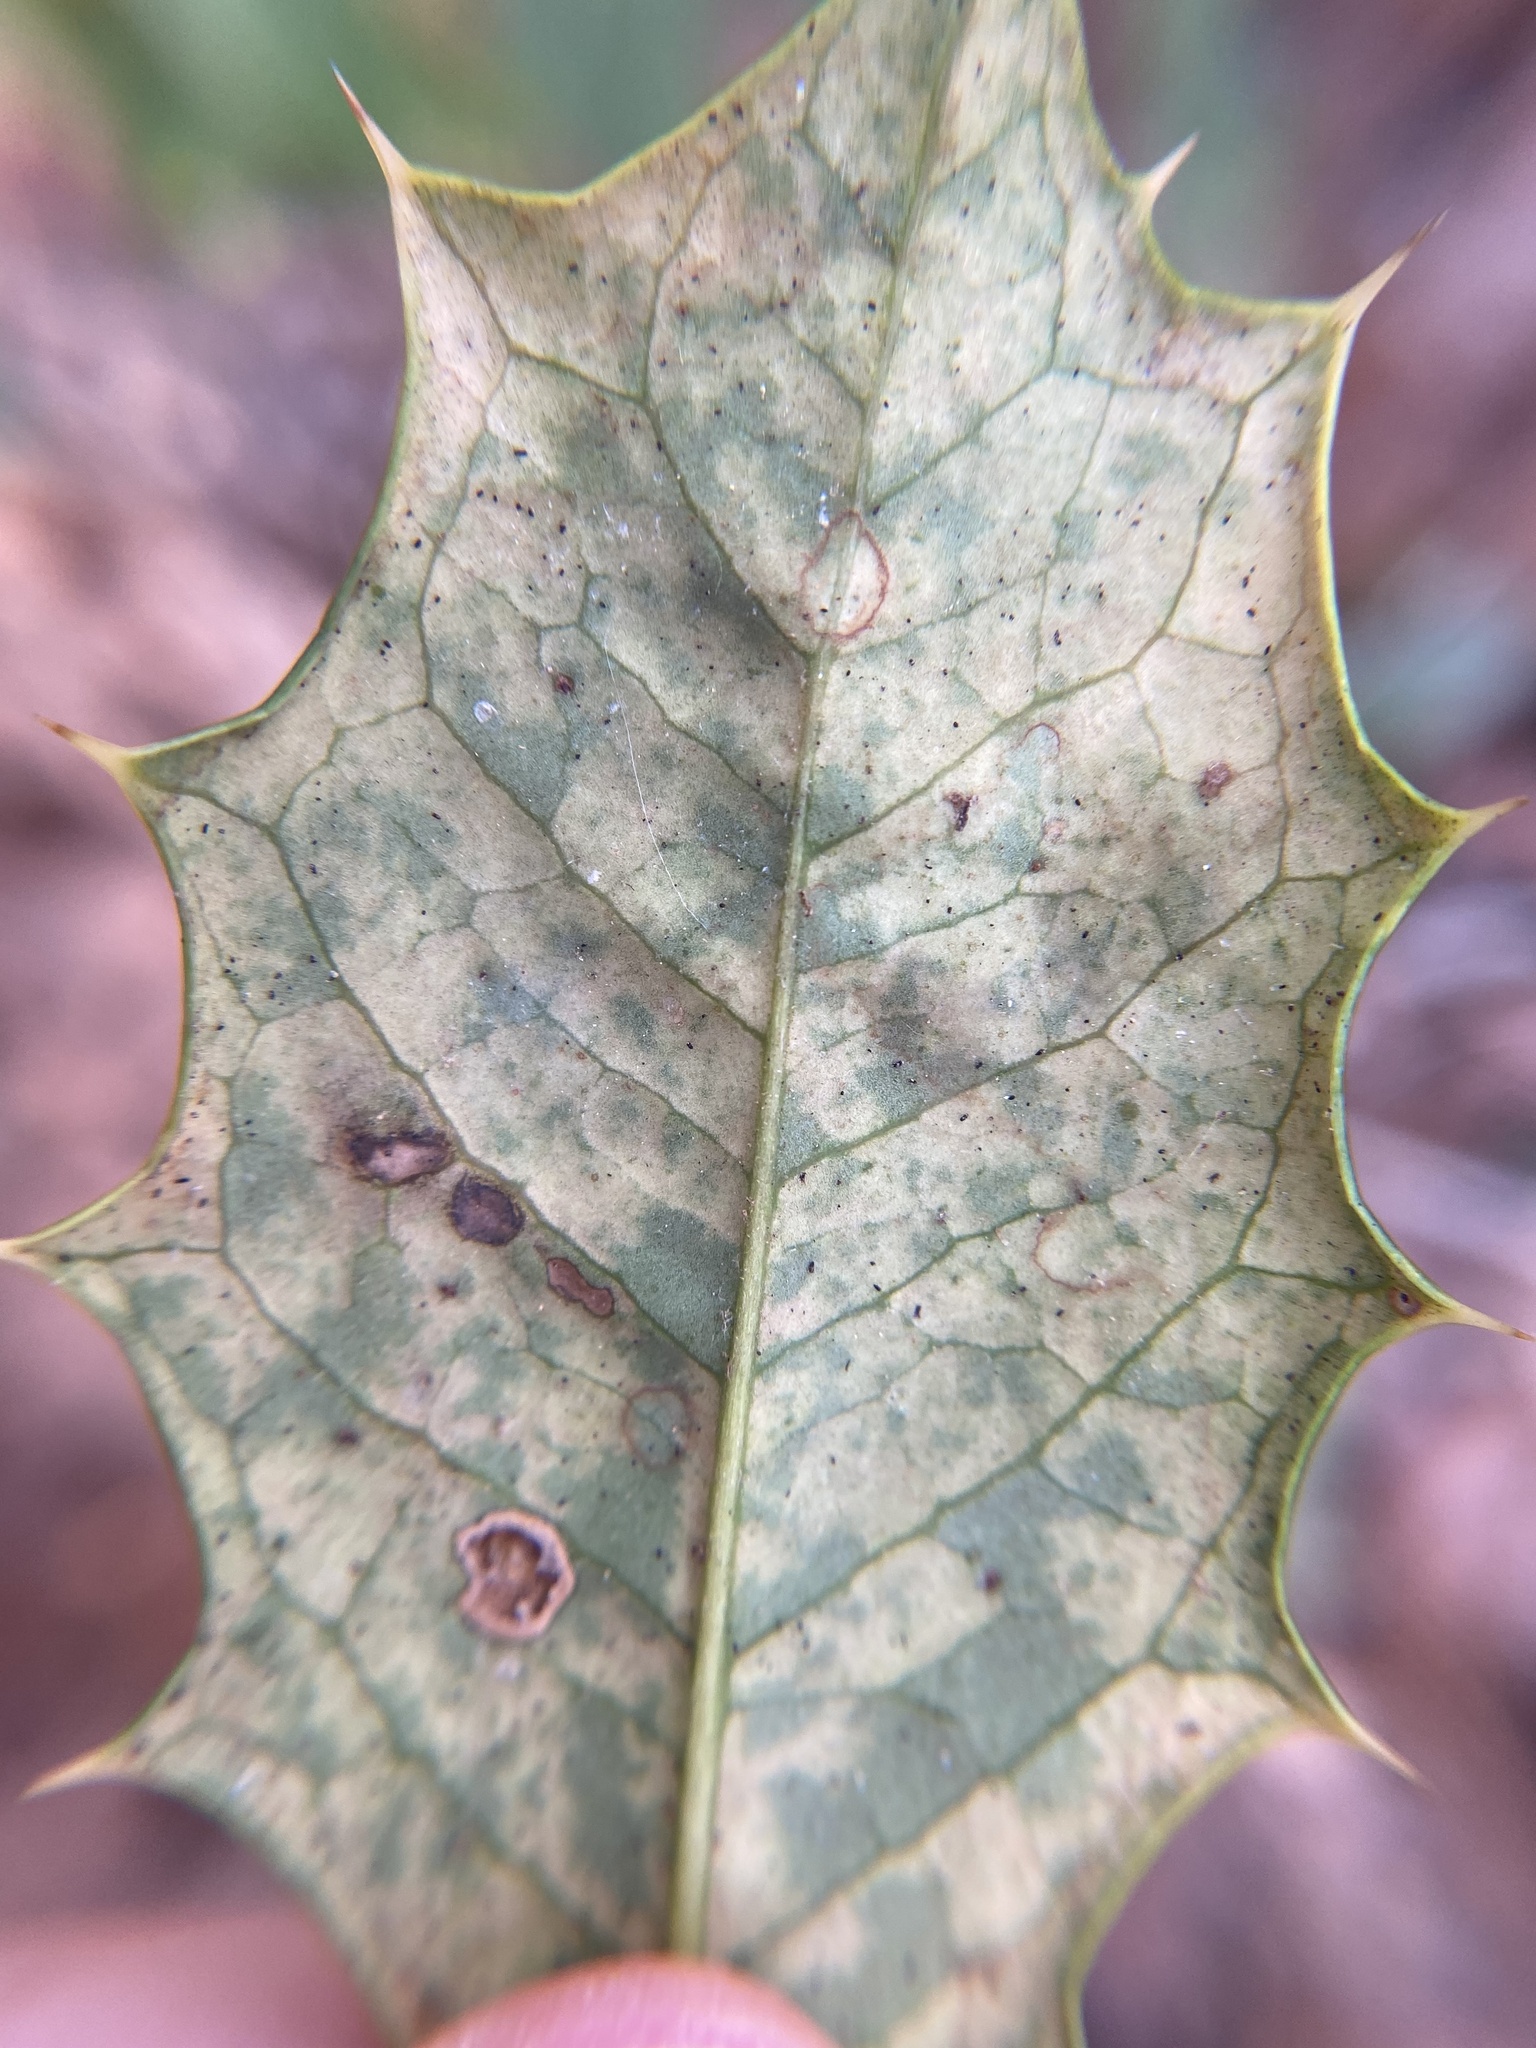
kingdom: Animalia
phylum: Arthropoda
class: Insecta
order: Diptera
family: Agromyzidae
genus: Phytomyza
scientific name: Phytomyza opacae
